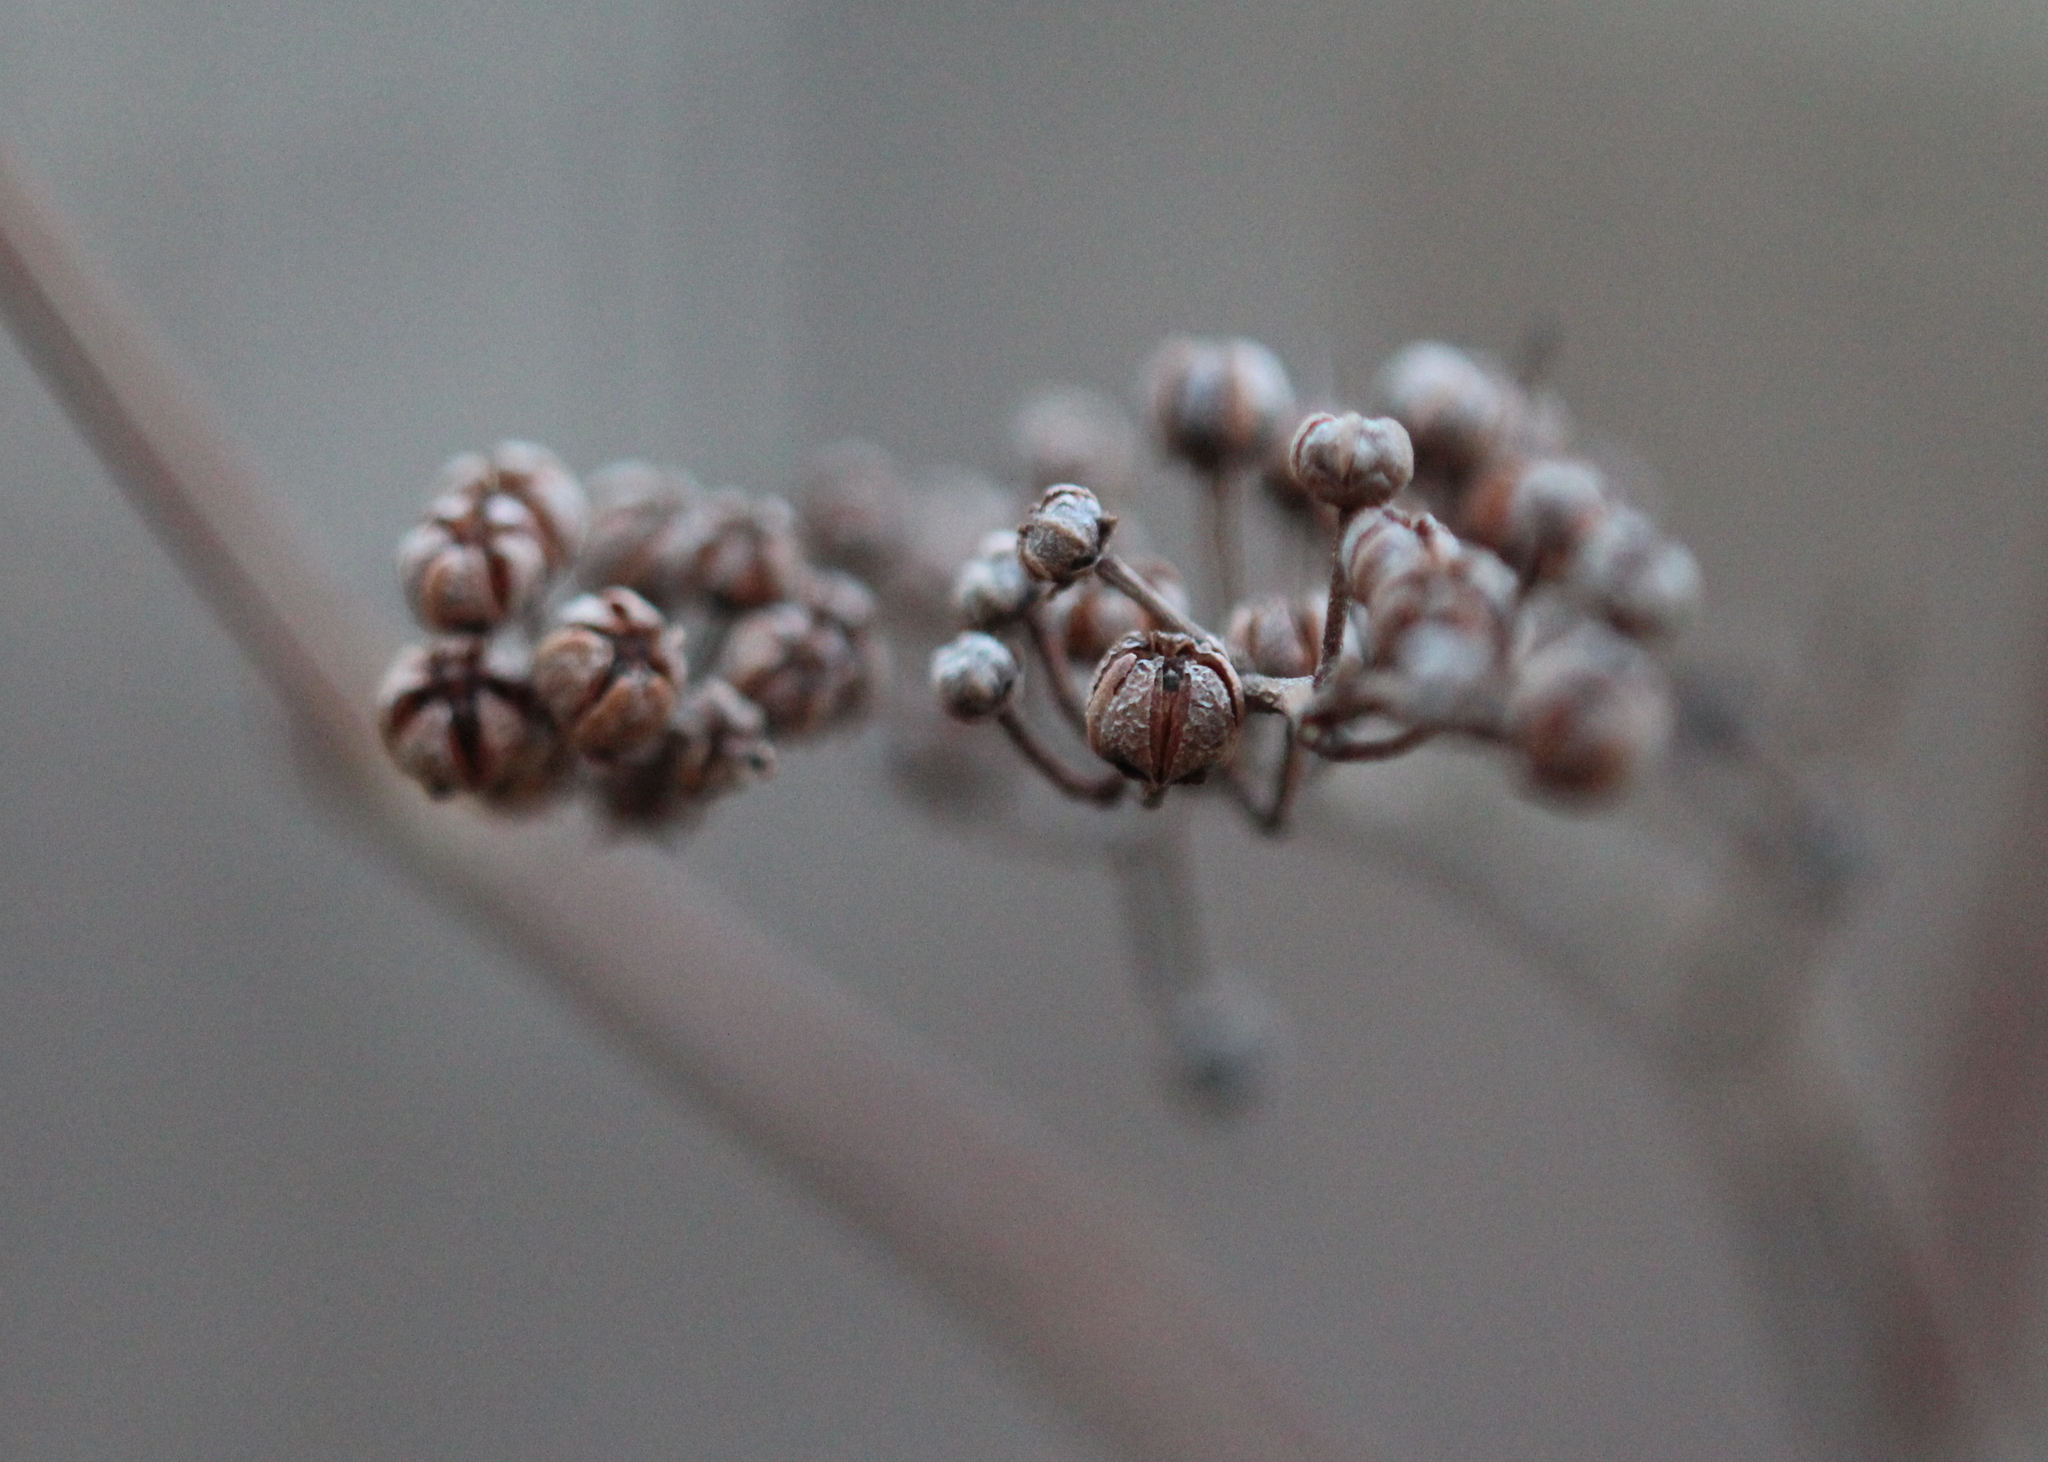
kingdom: Plantae
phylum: Tracheophyta
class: Magnoliopsida
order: Ericales
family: Ericaceae
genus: Lyonia
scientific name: Lyonia ligustrina
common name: Maleberry
